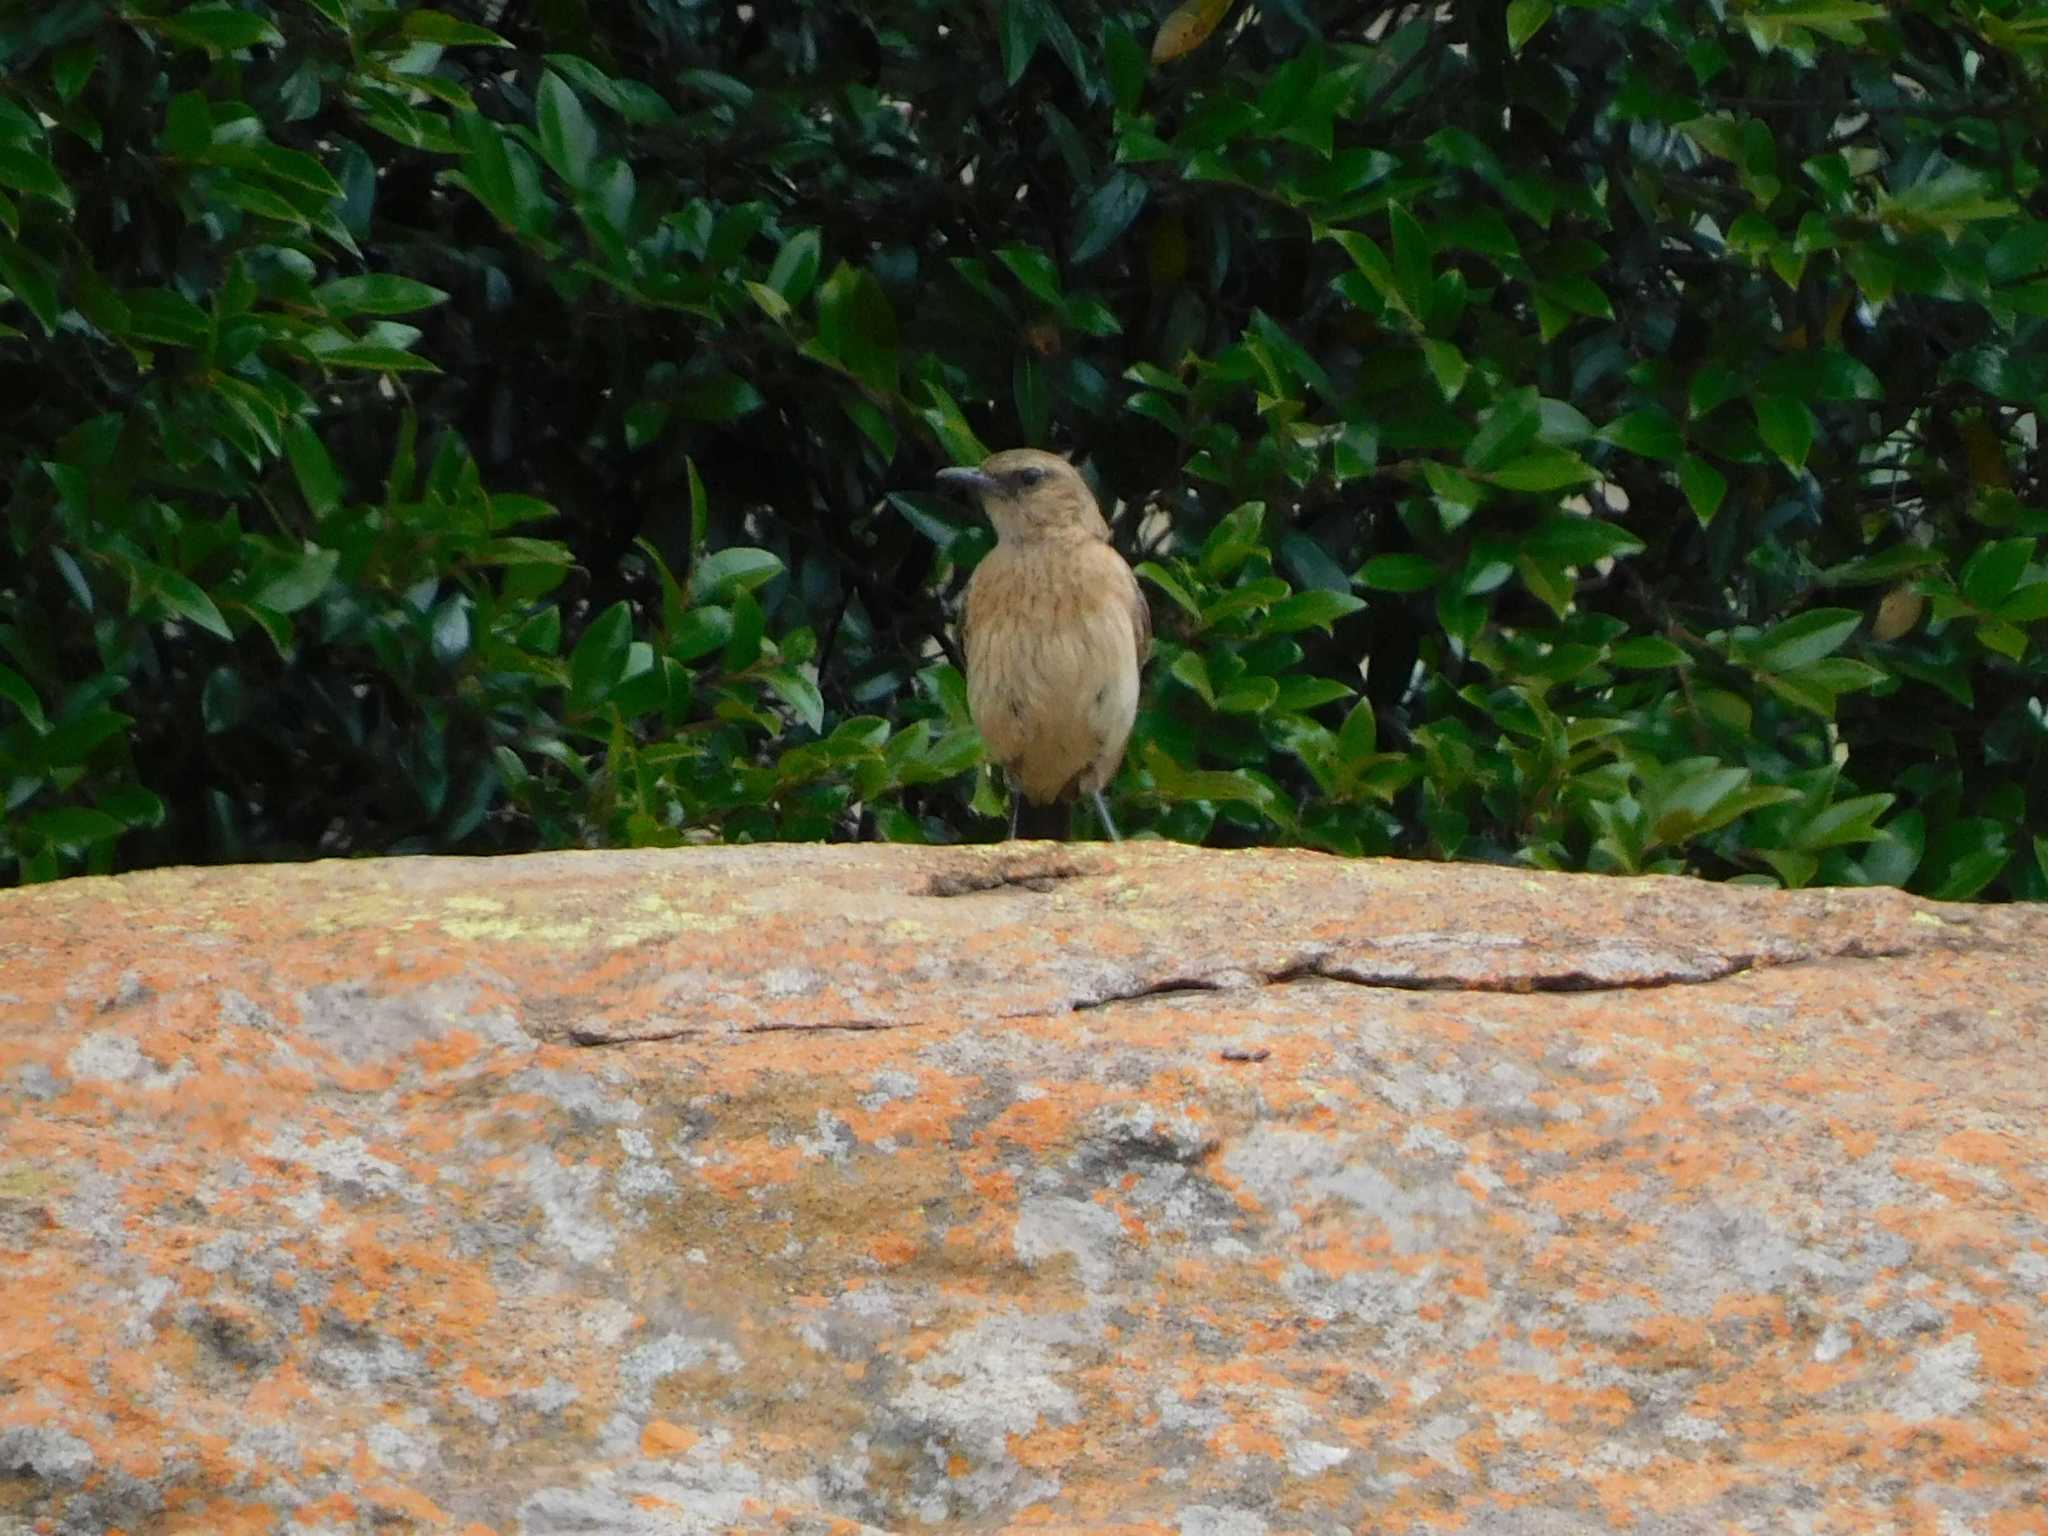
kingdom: Animalia
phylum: Chordata
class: Aves
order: Passeriformes
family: Muscicapidae
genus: Campicoloides
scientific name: Campicoloides bifasciatus
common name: Buff-streaked chat
